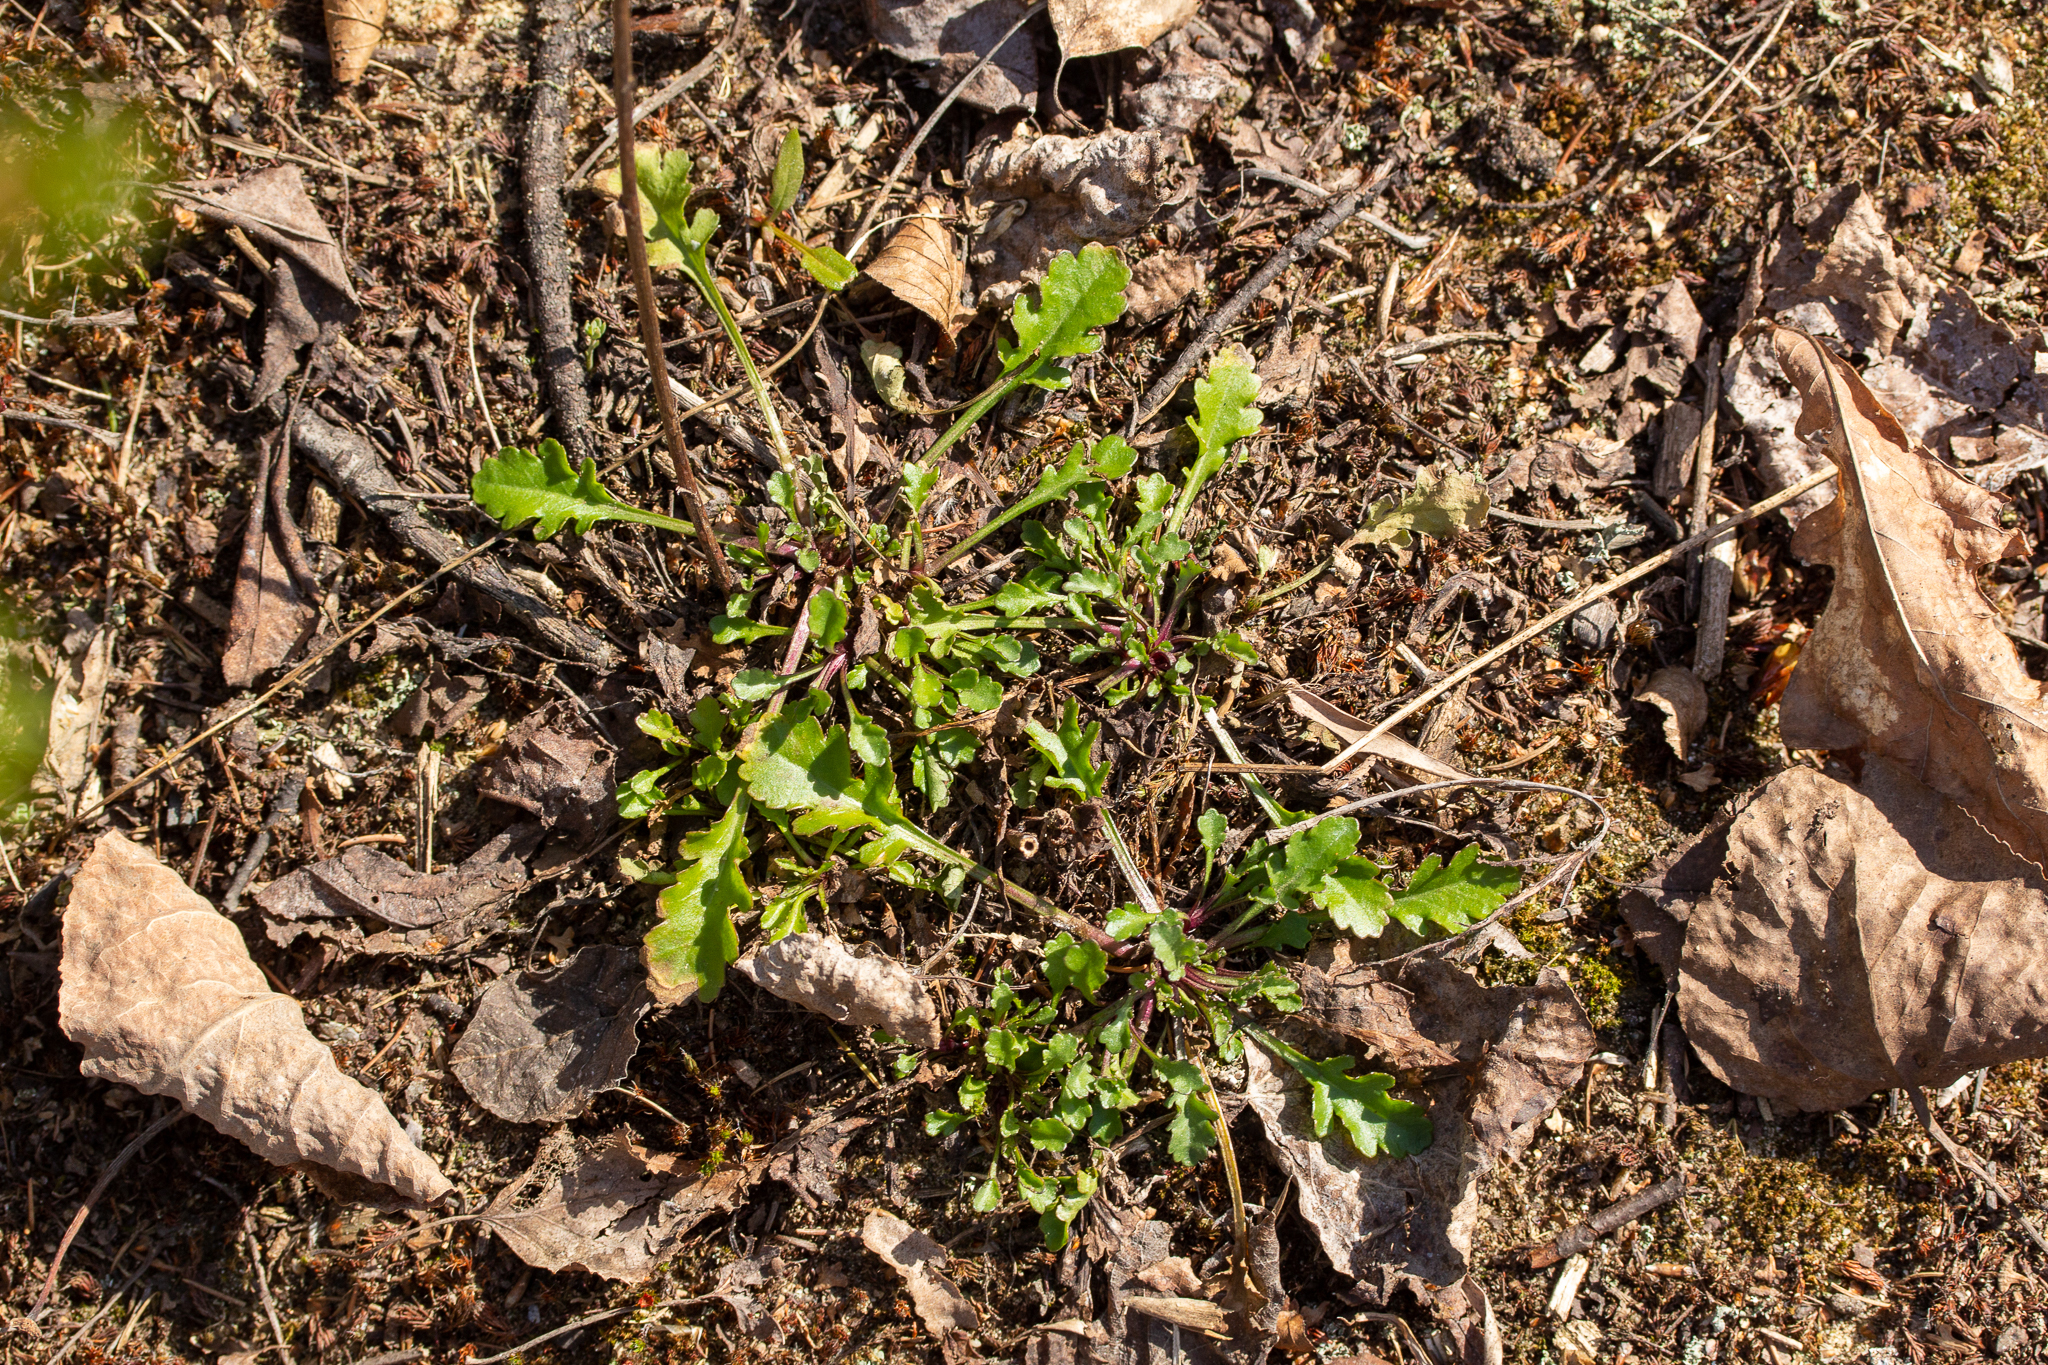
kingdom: Plantae
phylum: Tracheophyta
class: Magnoliopsida
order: Asterales
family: Asteraceae
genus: Leucanthemum
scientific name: Leucanthemum vulgare
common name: Oxeye daisy
